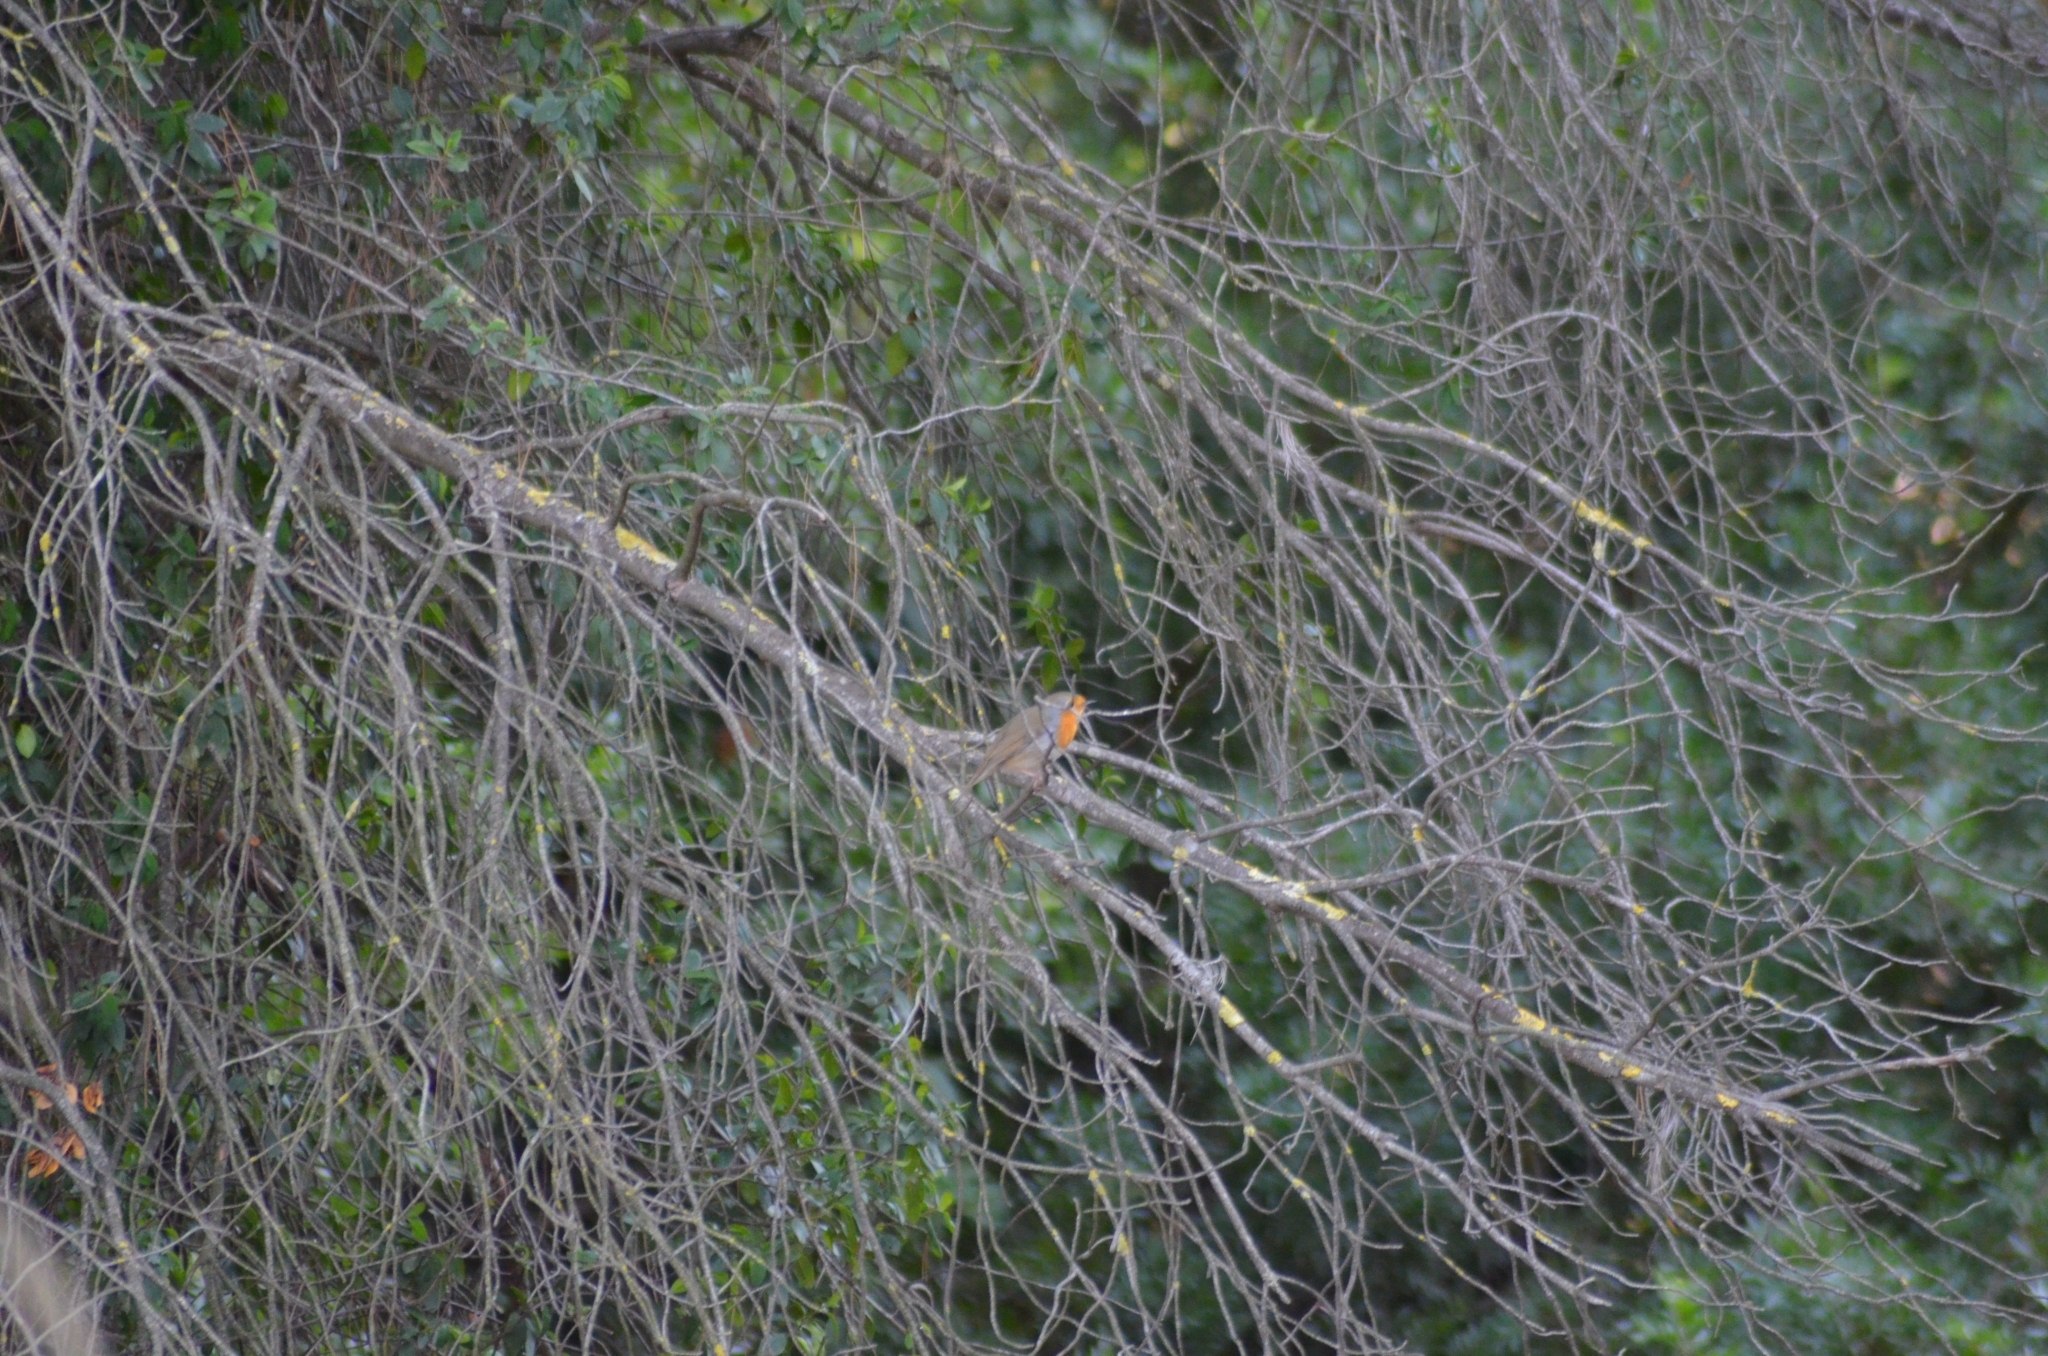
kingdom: Animalia
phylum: Chordata
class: Aves
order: Passeriformes
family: Muscicapidae
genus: Erithacus
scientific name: Erithacus rubecula
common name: European robin
